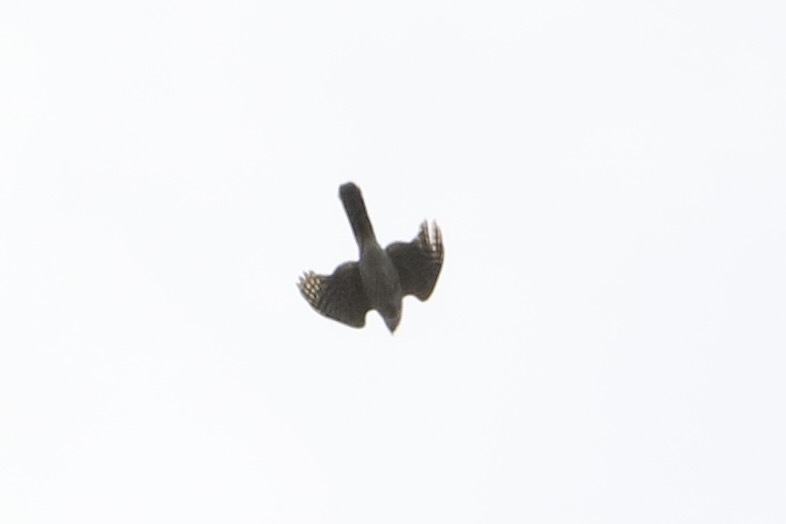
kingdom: Animalia
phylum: Chordata
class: Aves
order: Accipitriformes
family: Accipitridae
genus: Accipiter
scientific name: Accipiter cooperii
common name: Cooper's hawk
